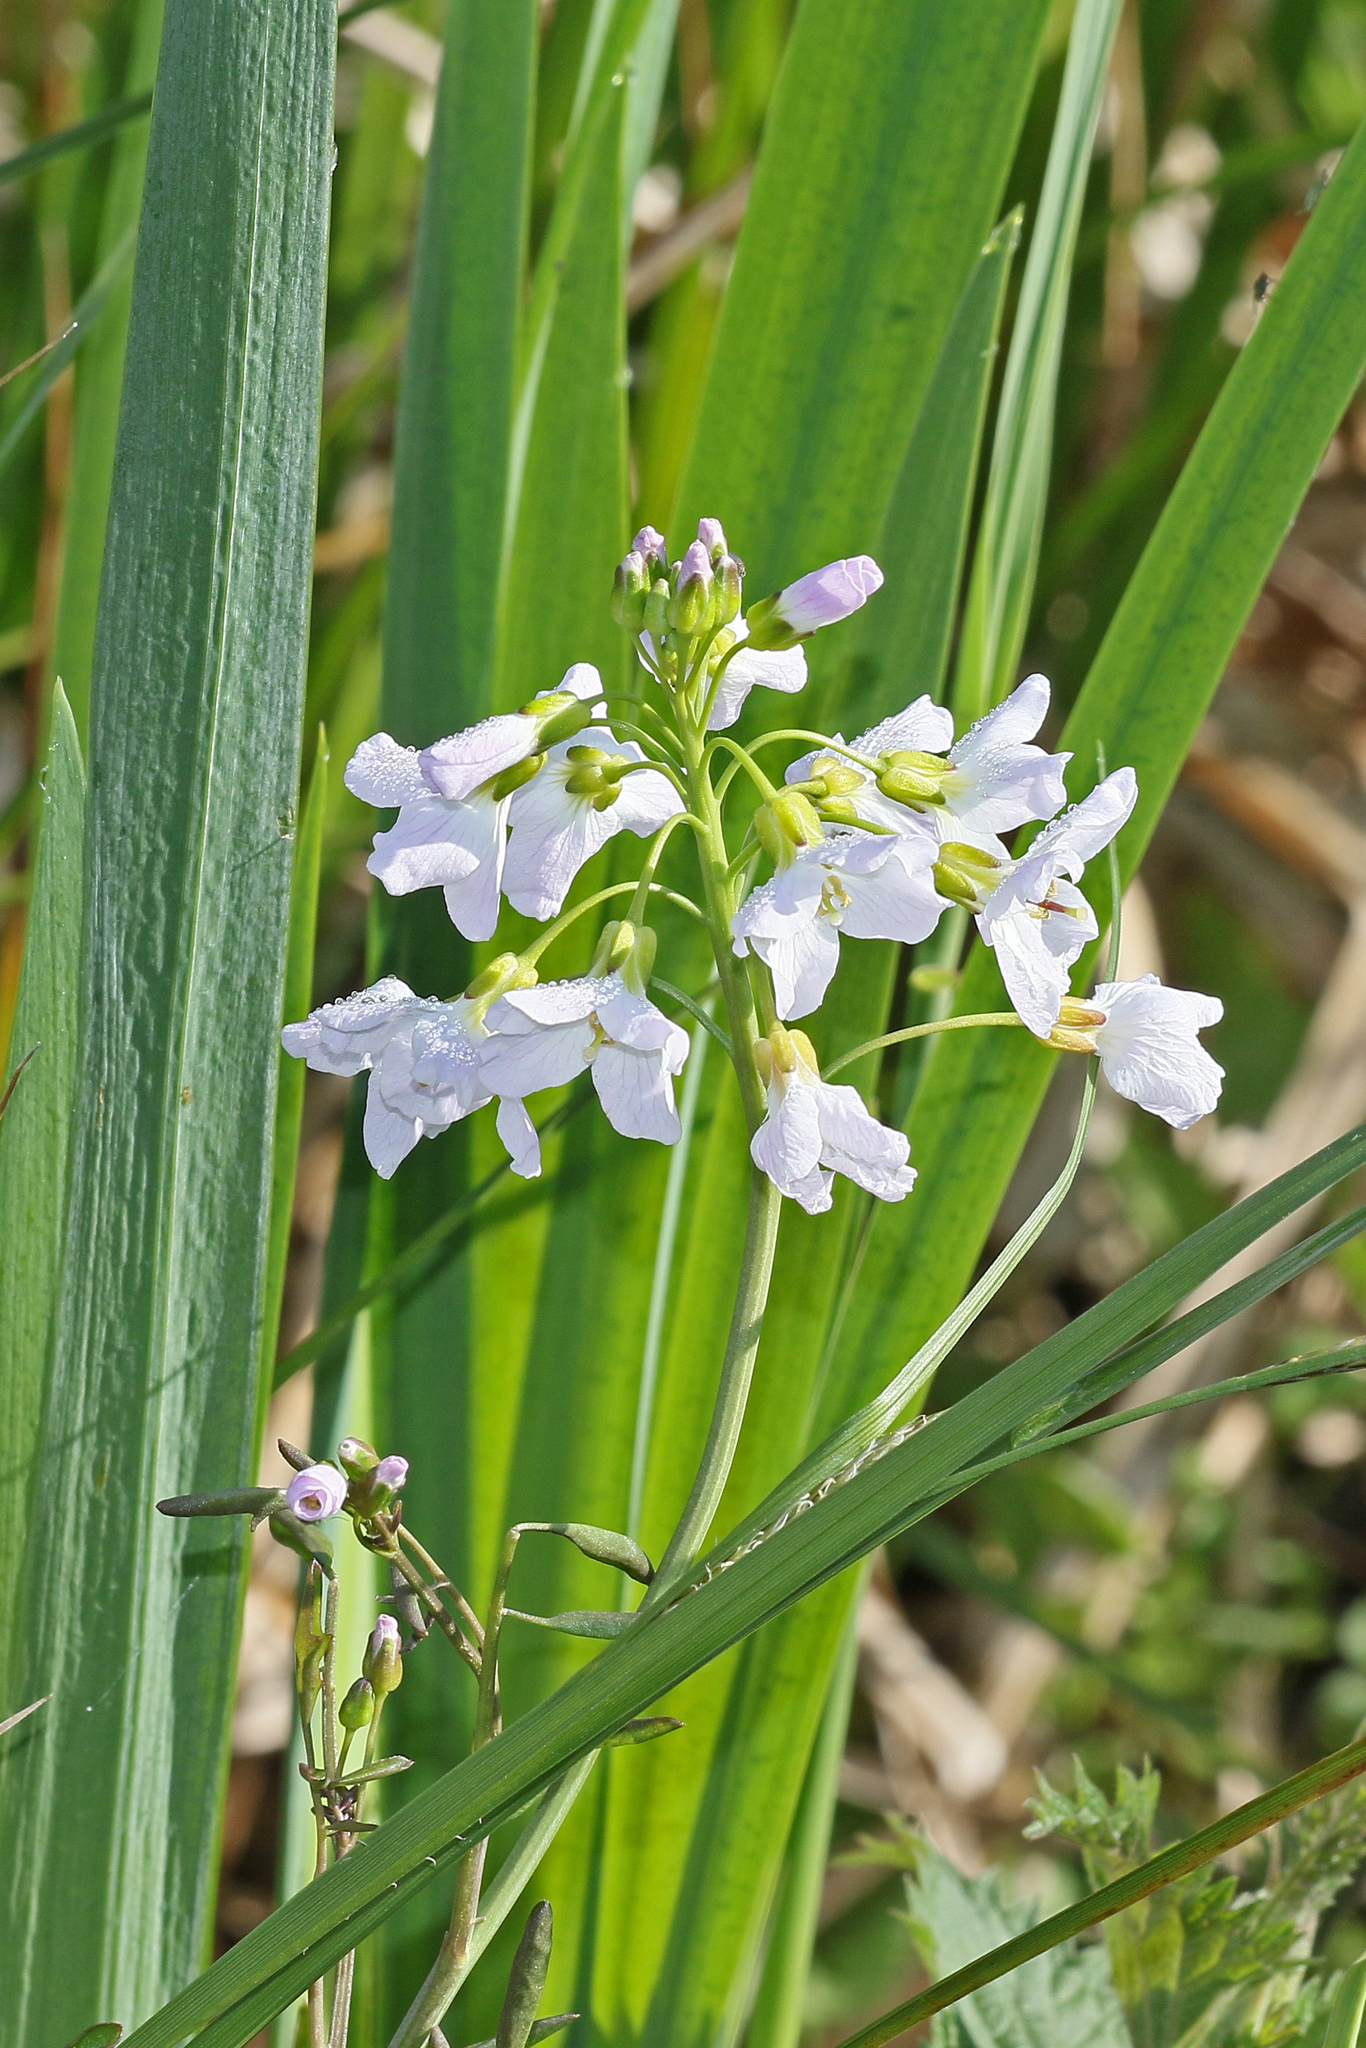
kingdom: Plantae
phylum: Tracheophyta
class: Magnoliopsida
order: Brassicales
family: Brassicaceae
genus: Cardamine
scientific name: Cardamine pratensis
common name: Cuckoo flower
